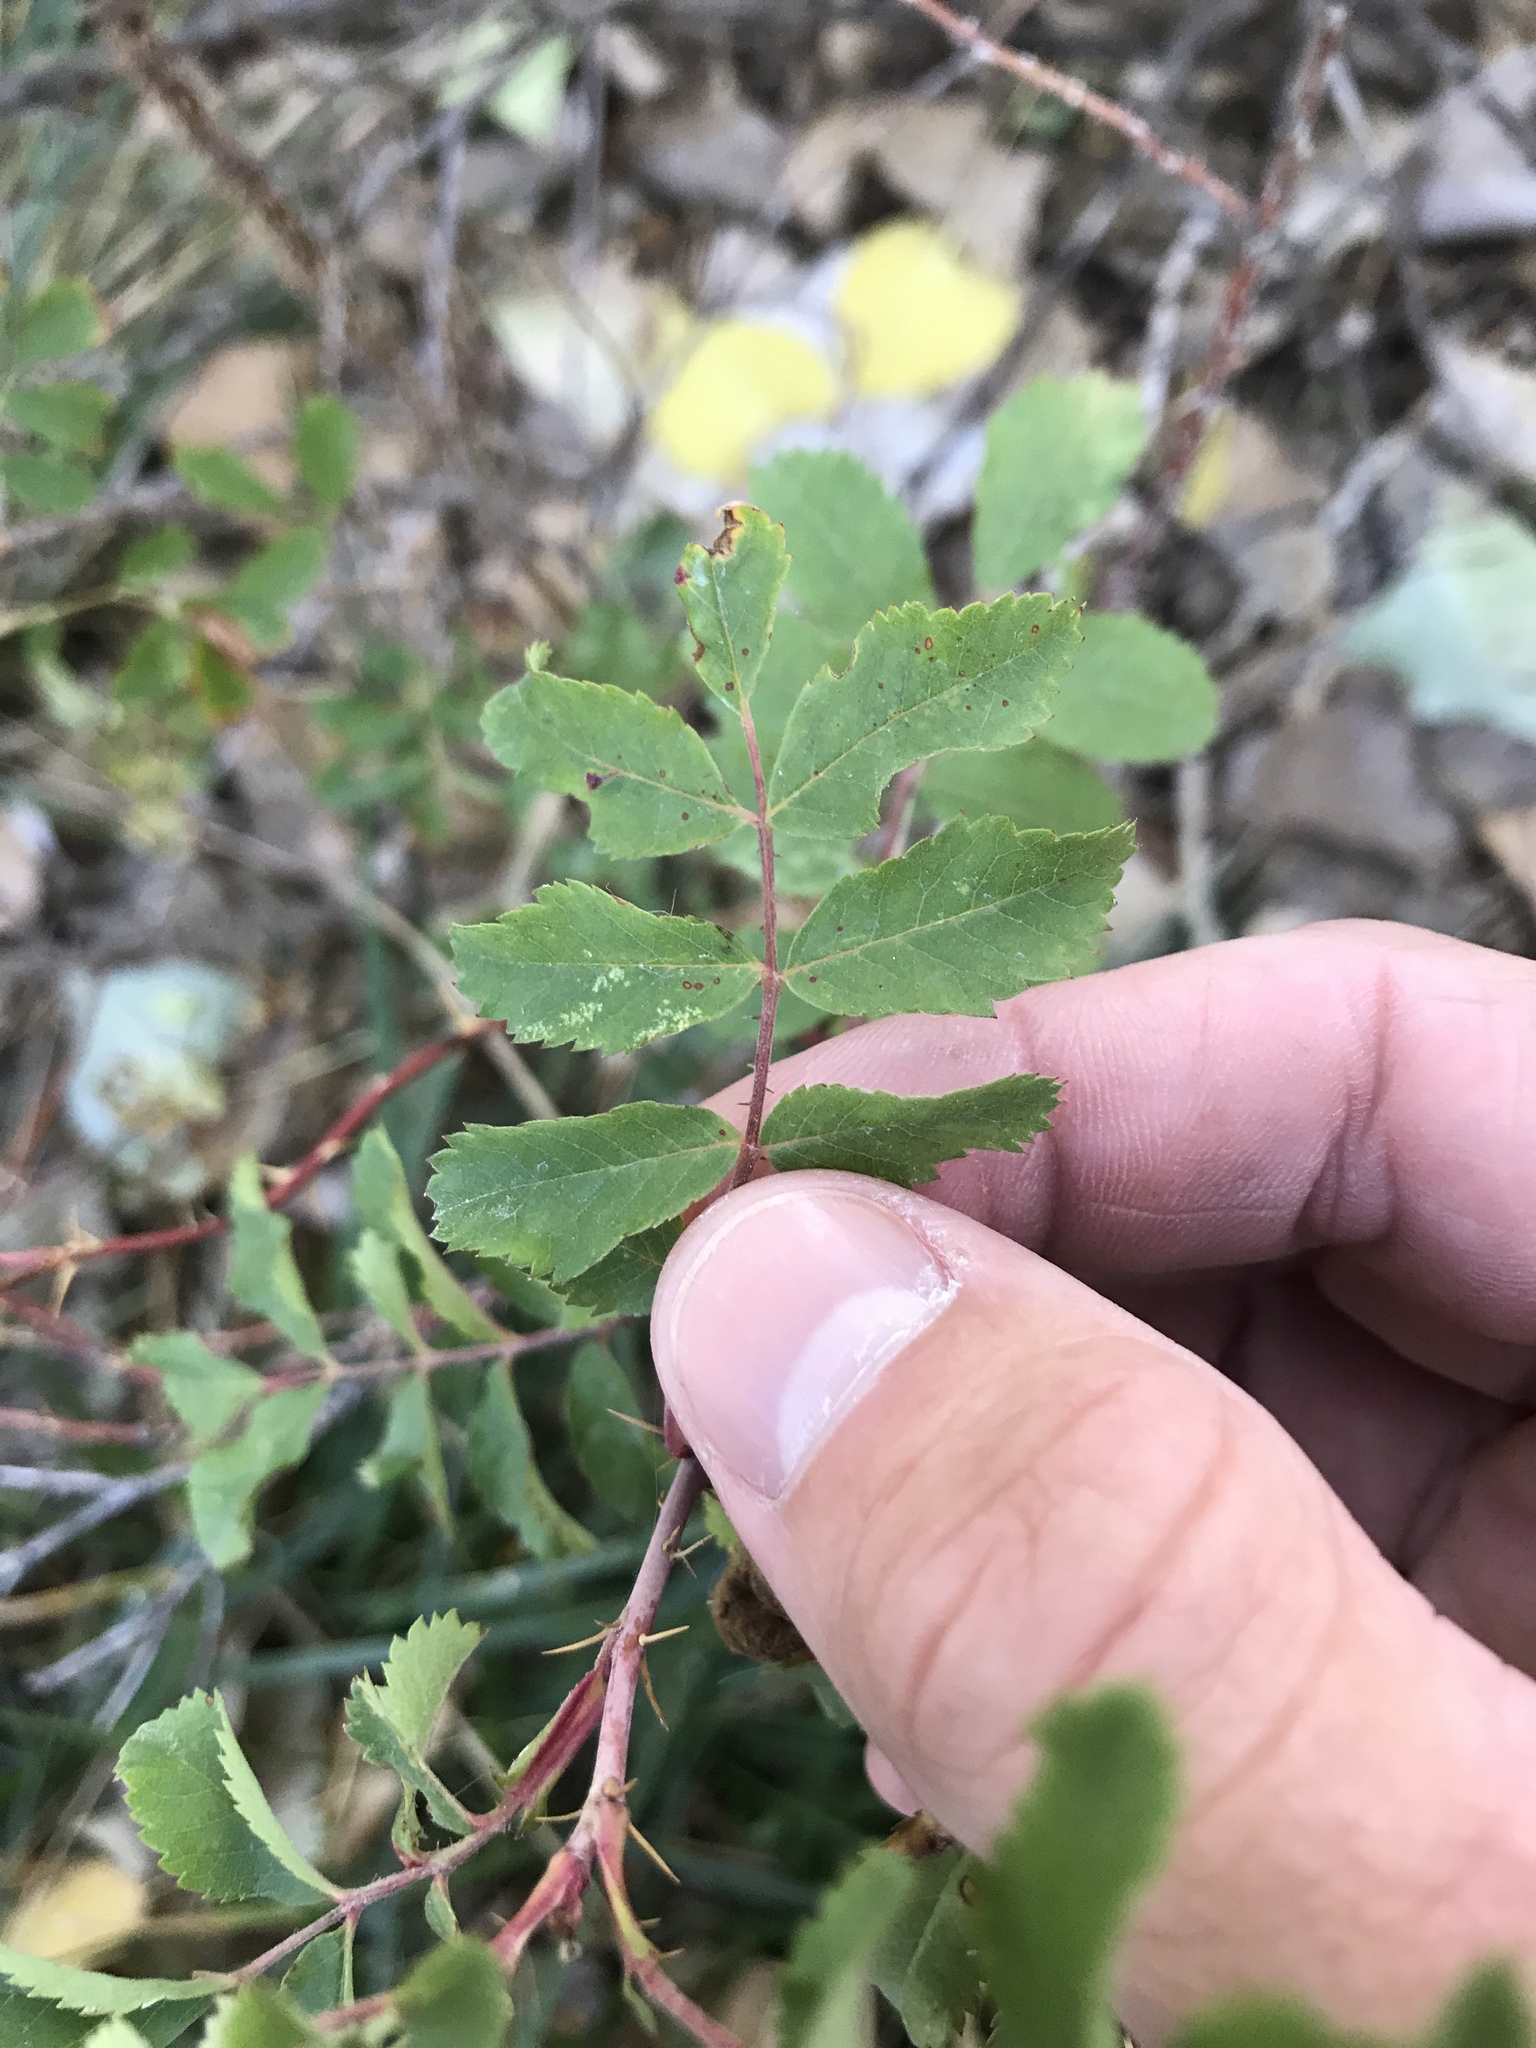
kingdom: Plantae
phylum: Tracheophyta
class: Magnoliopsida
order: Rosales
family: Rosaceae
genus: Rosa
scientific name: Rosa woodsii
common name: Woods's rose
